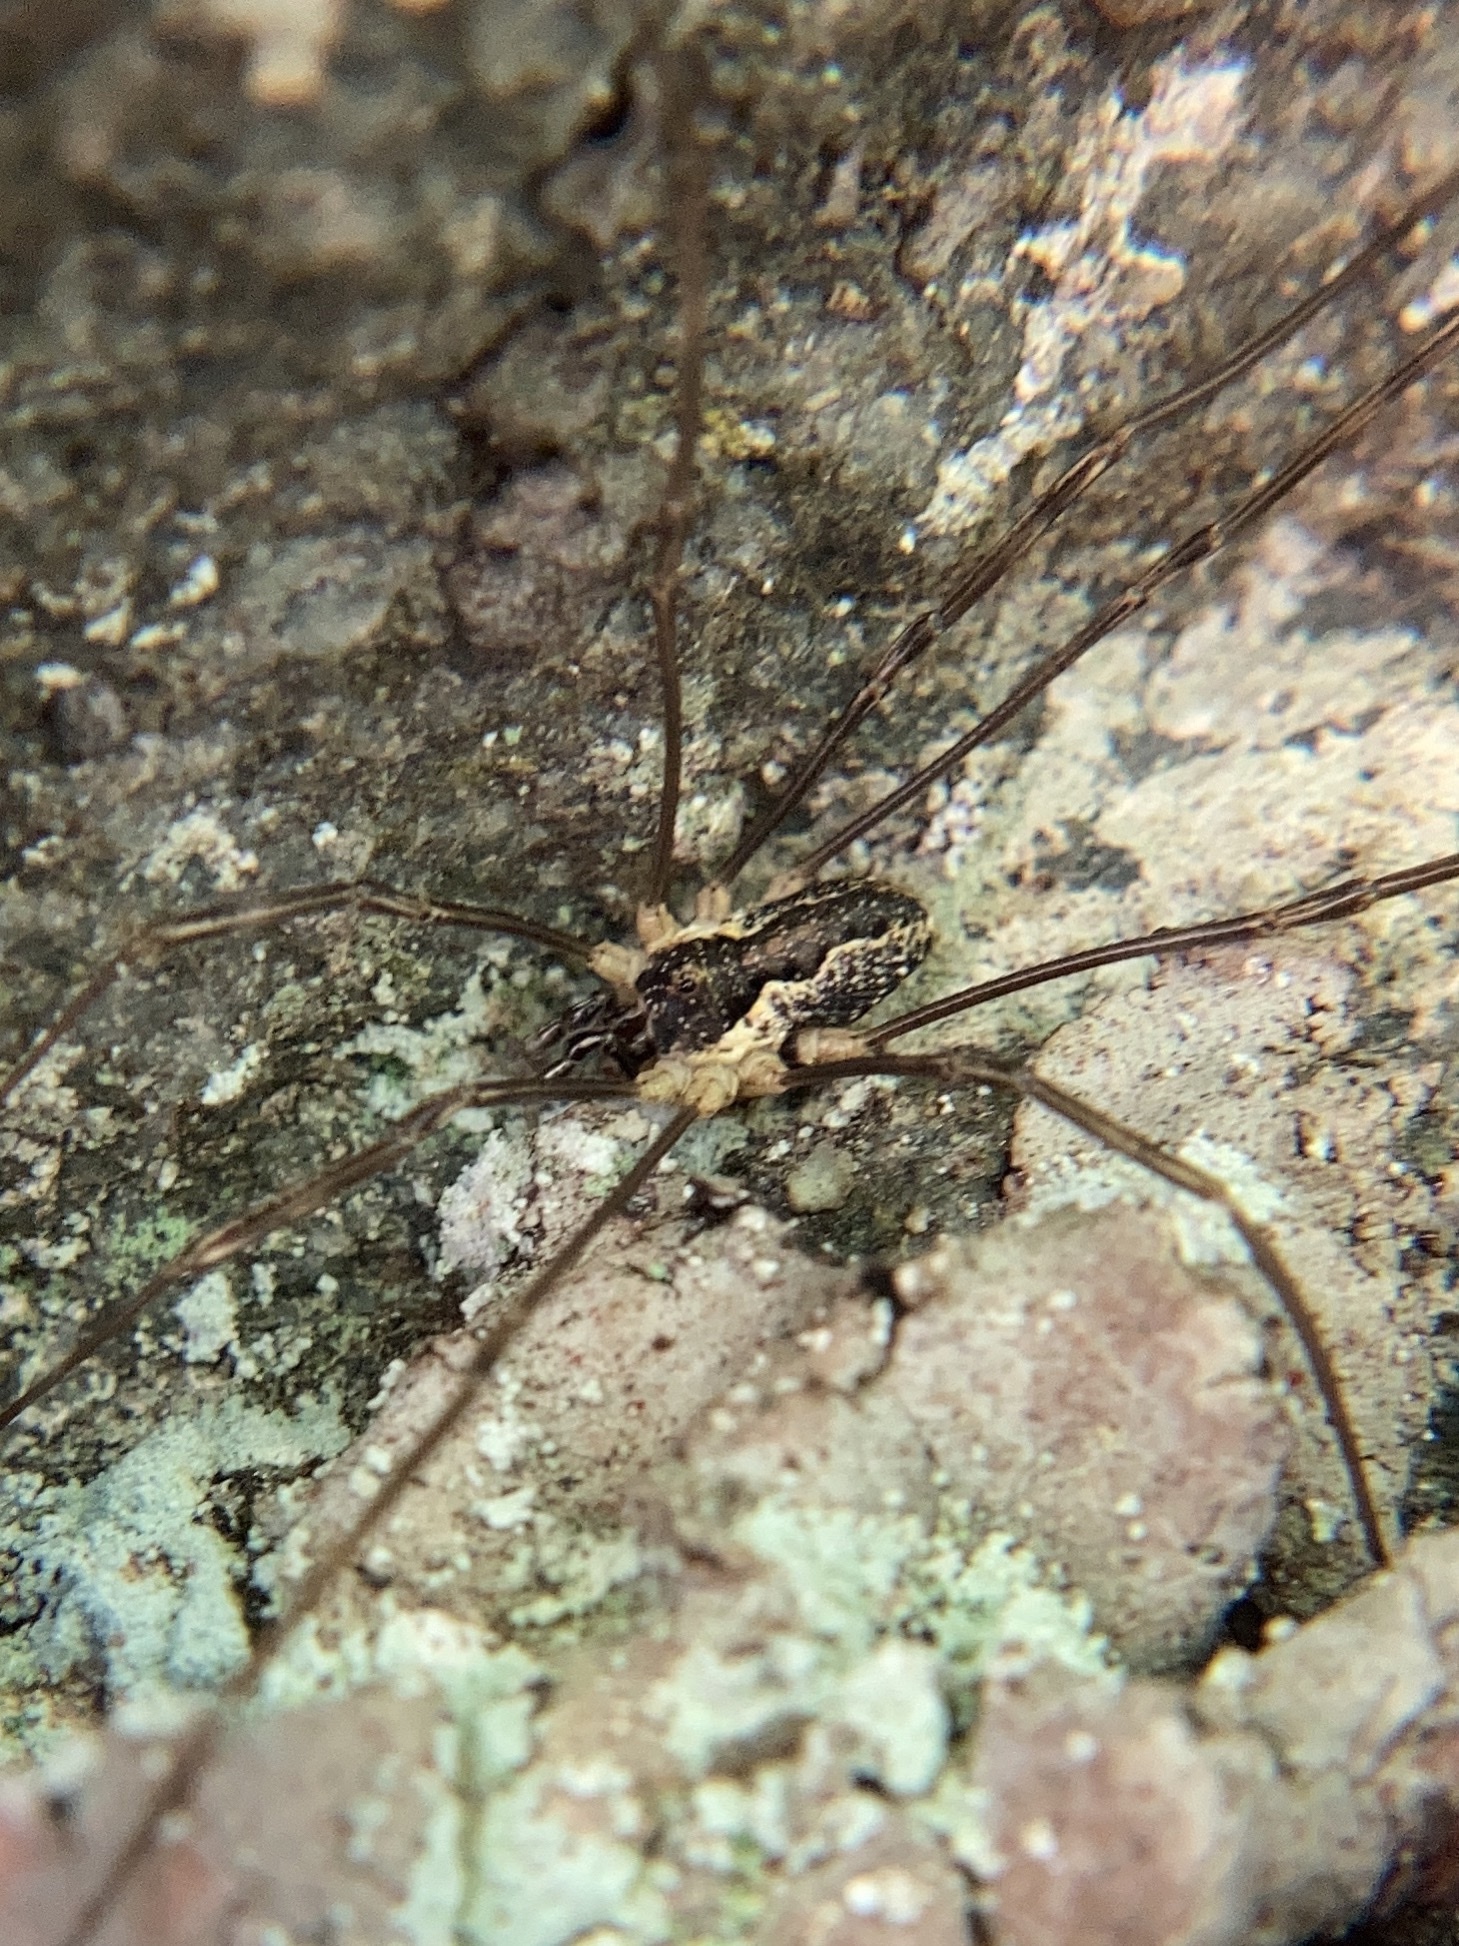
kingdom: Animalia
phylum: Arthropoda
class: Arachnida
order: Opiliones
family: Phalangiidae
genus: Mitopus
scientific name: Mitopus morio
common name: Saddleback harvestman
